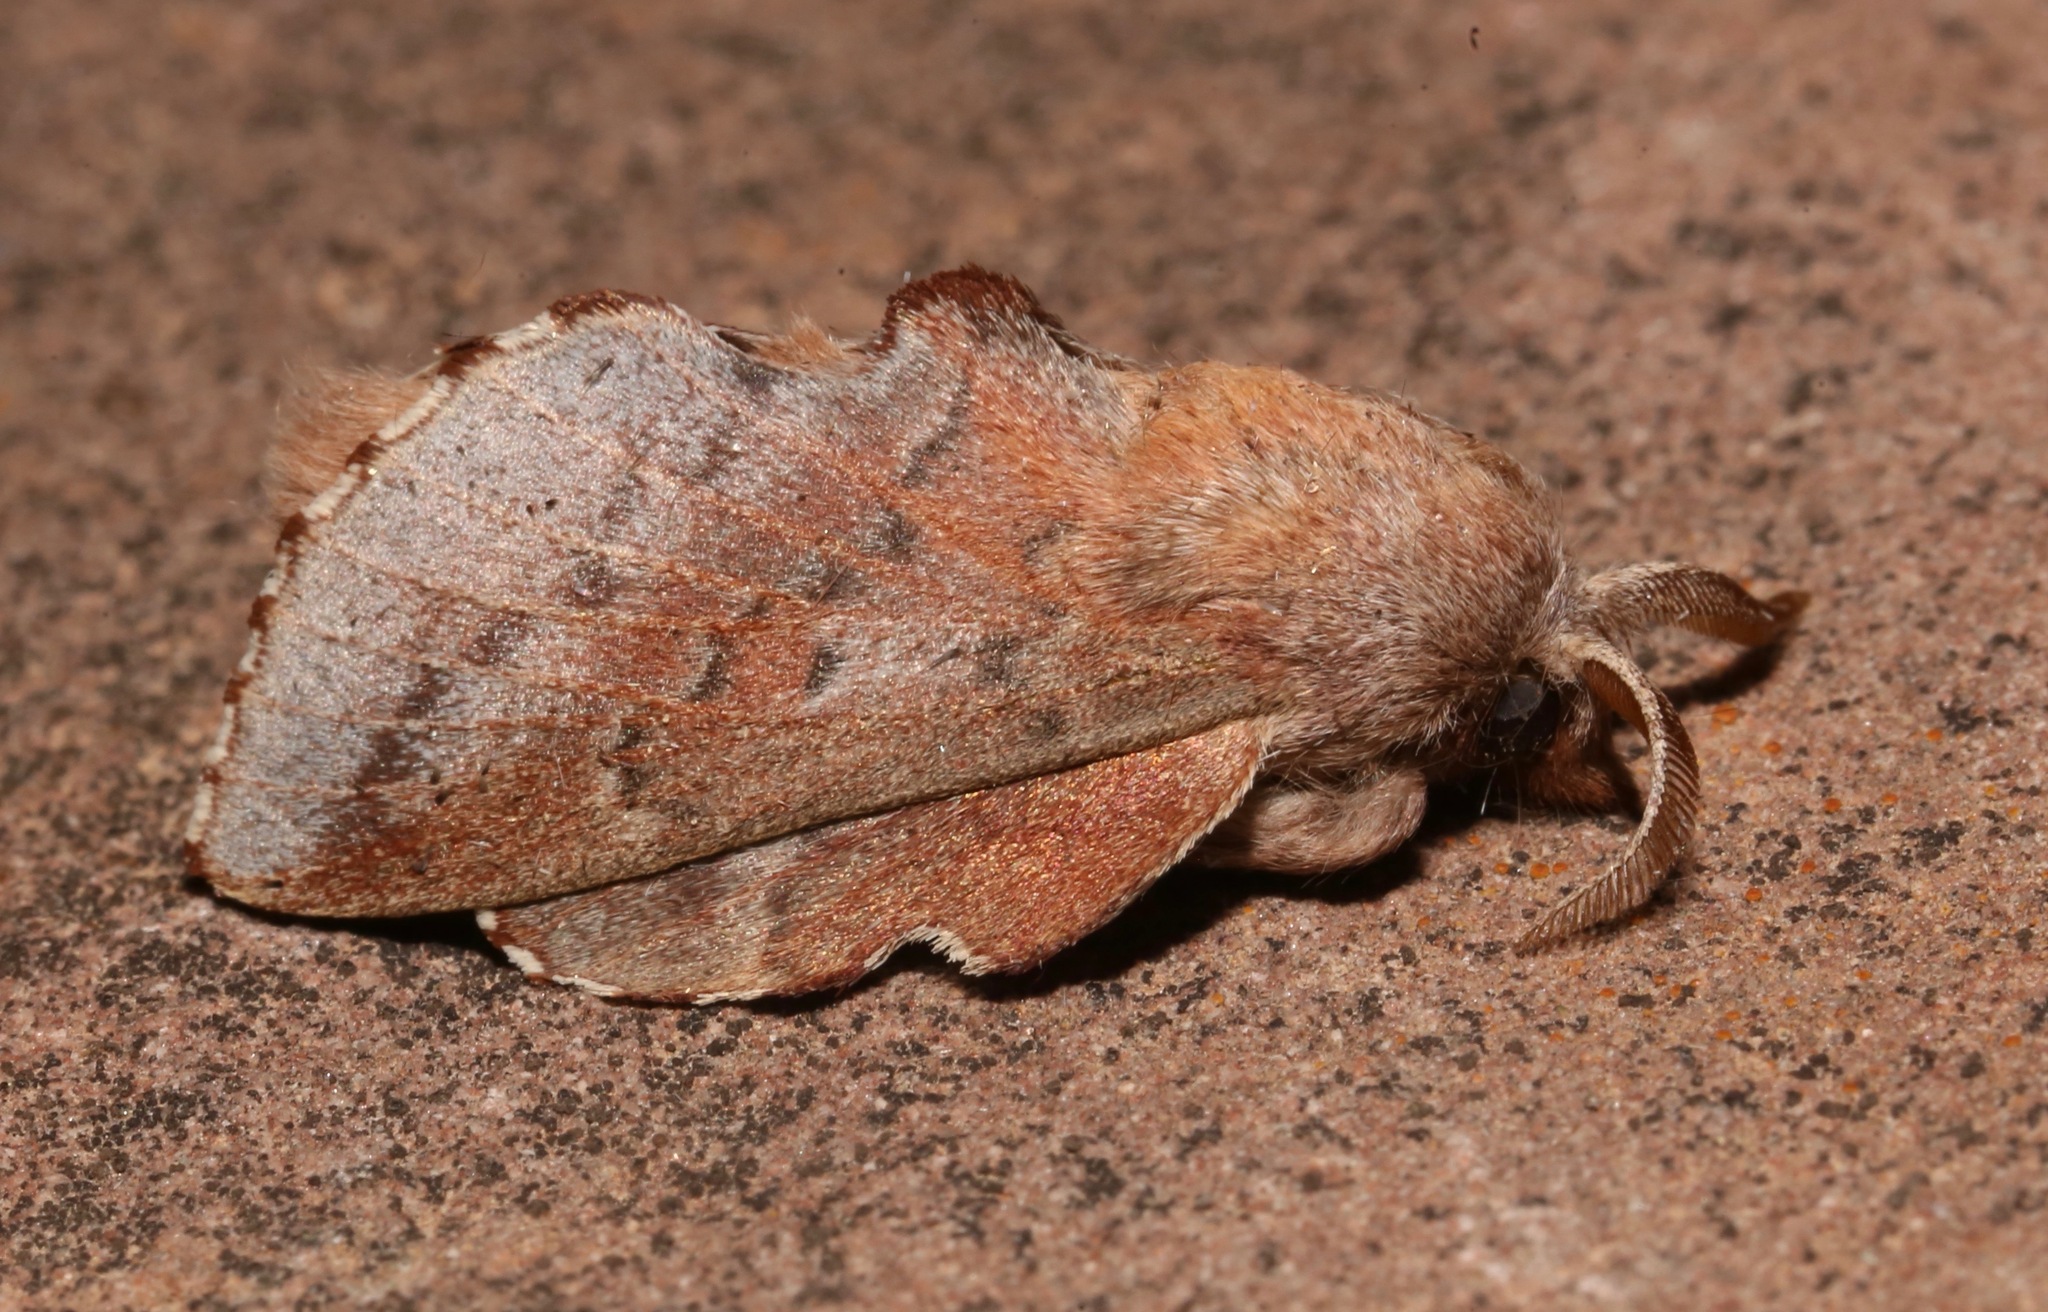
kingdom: Animalia
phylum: Arthropoda
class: Insecta
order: Lepidoptera
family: Lasiocampidae
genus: Phyllodesma
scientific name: Phyllodesma americana
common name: American lappet moth
